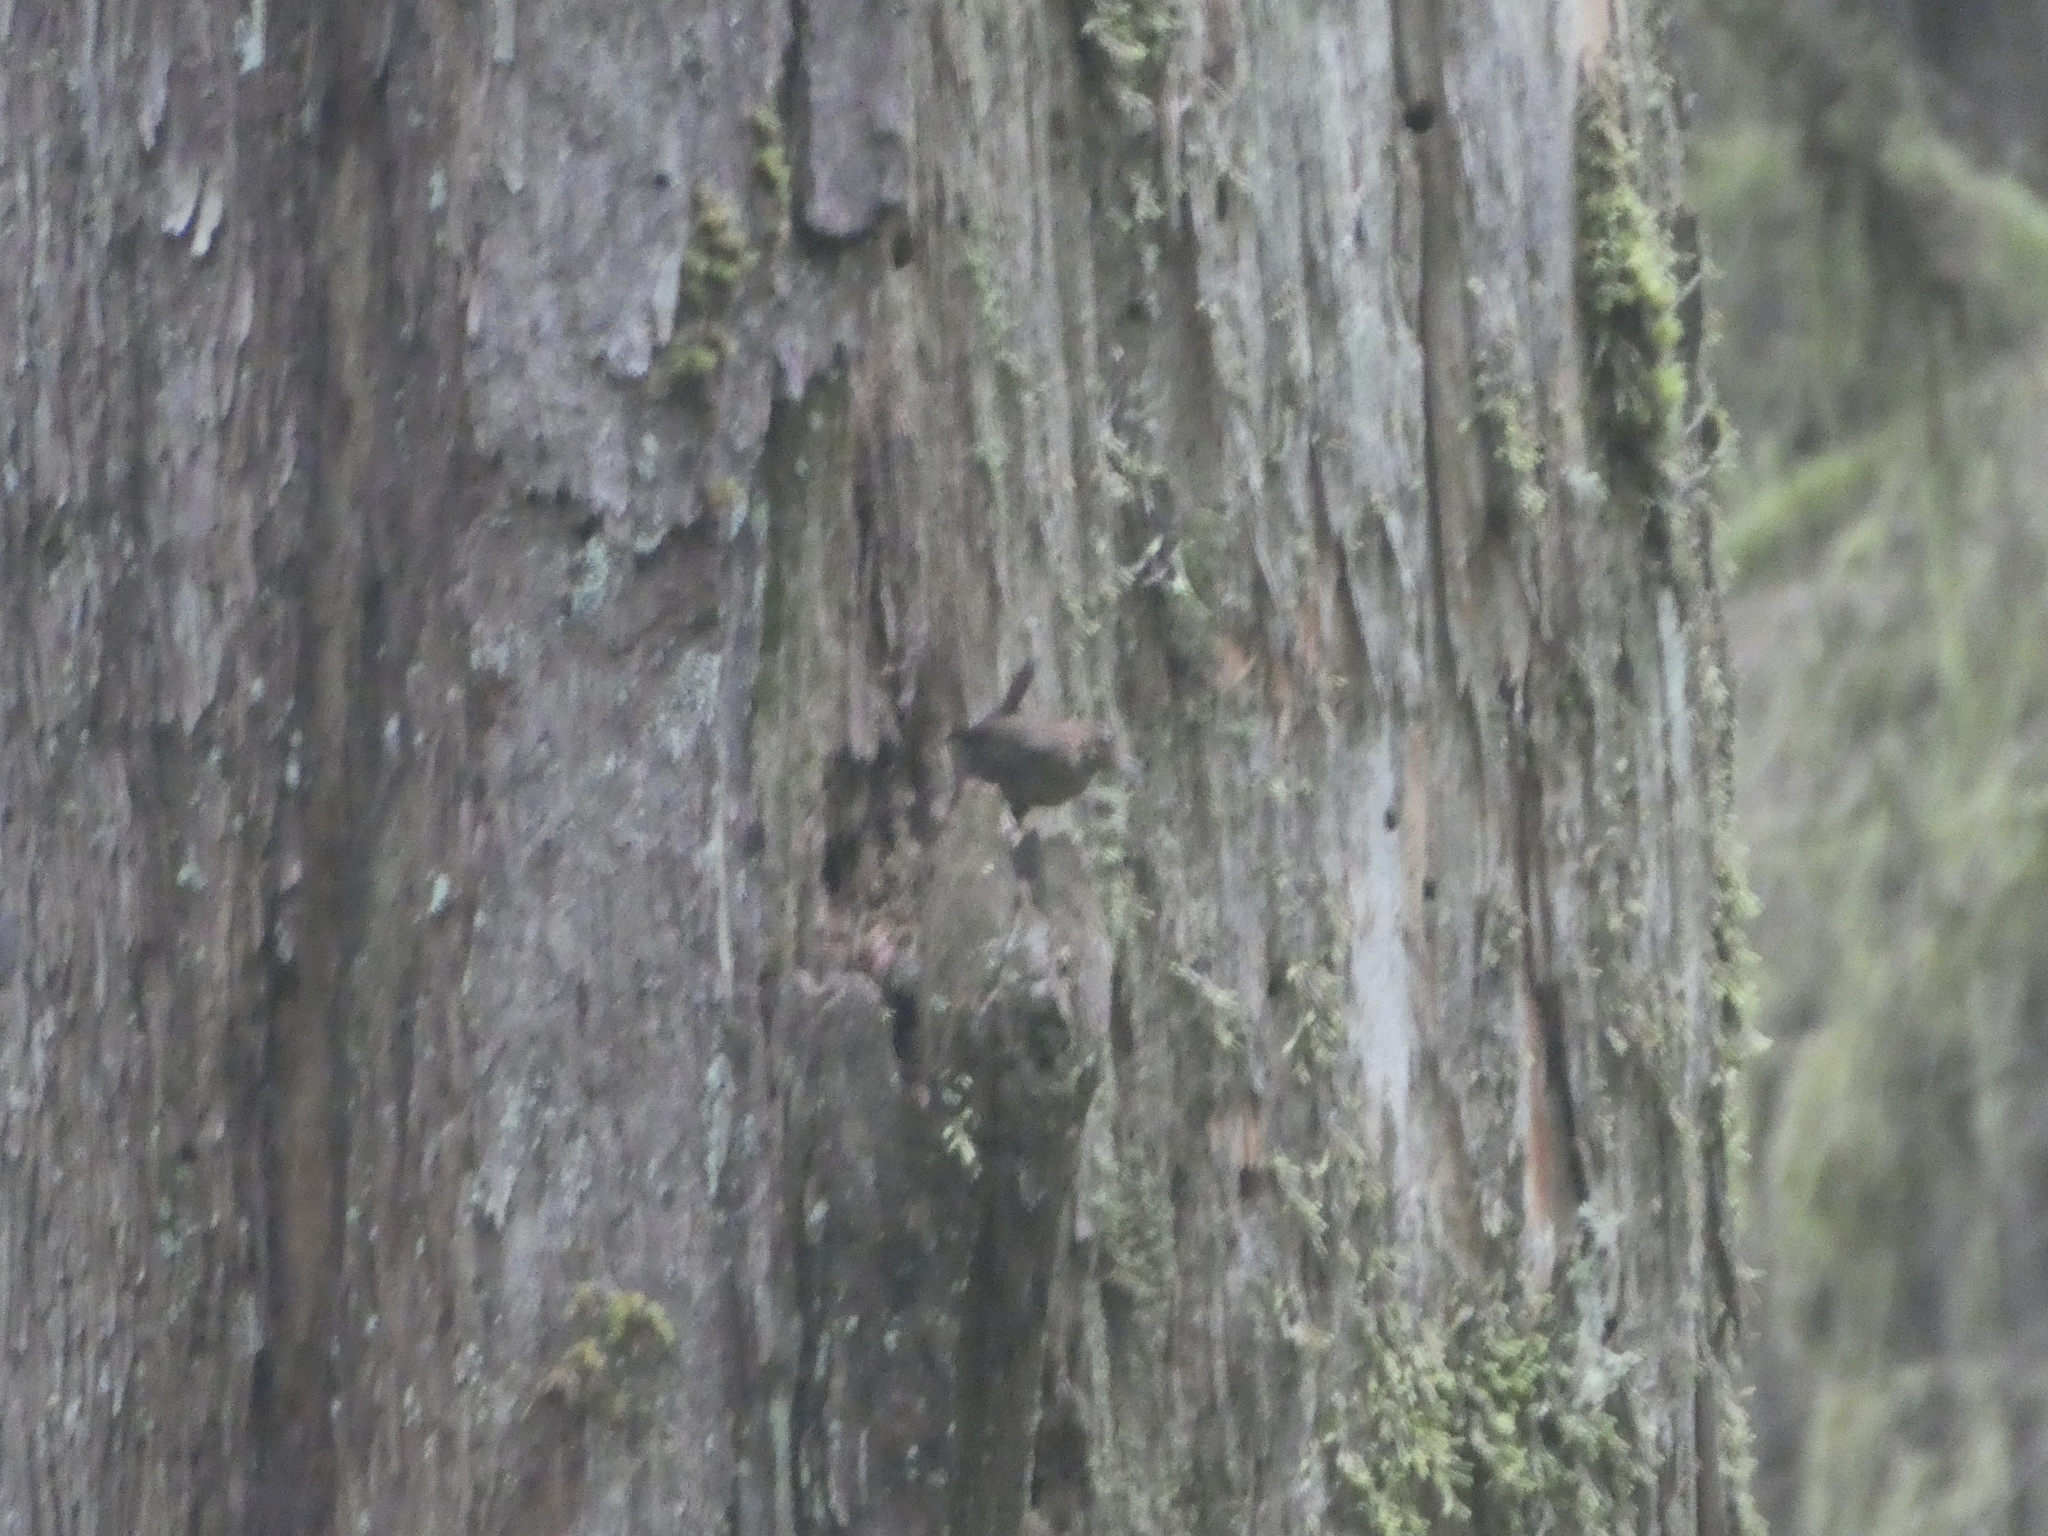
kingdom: Animalia
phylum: Chordata
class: Aves
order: Passeriformes
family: Troglodytidae
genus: Troglodytes
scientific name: Troglodytes pacificus
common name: Pacific wren
